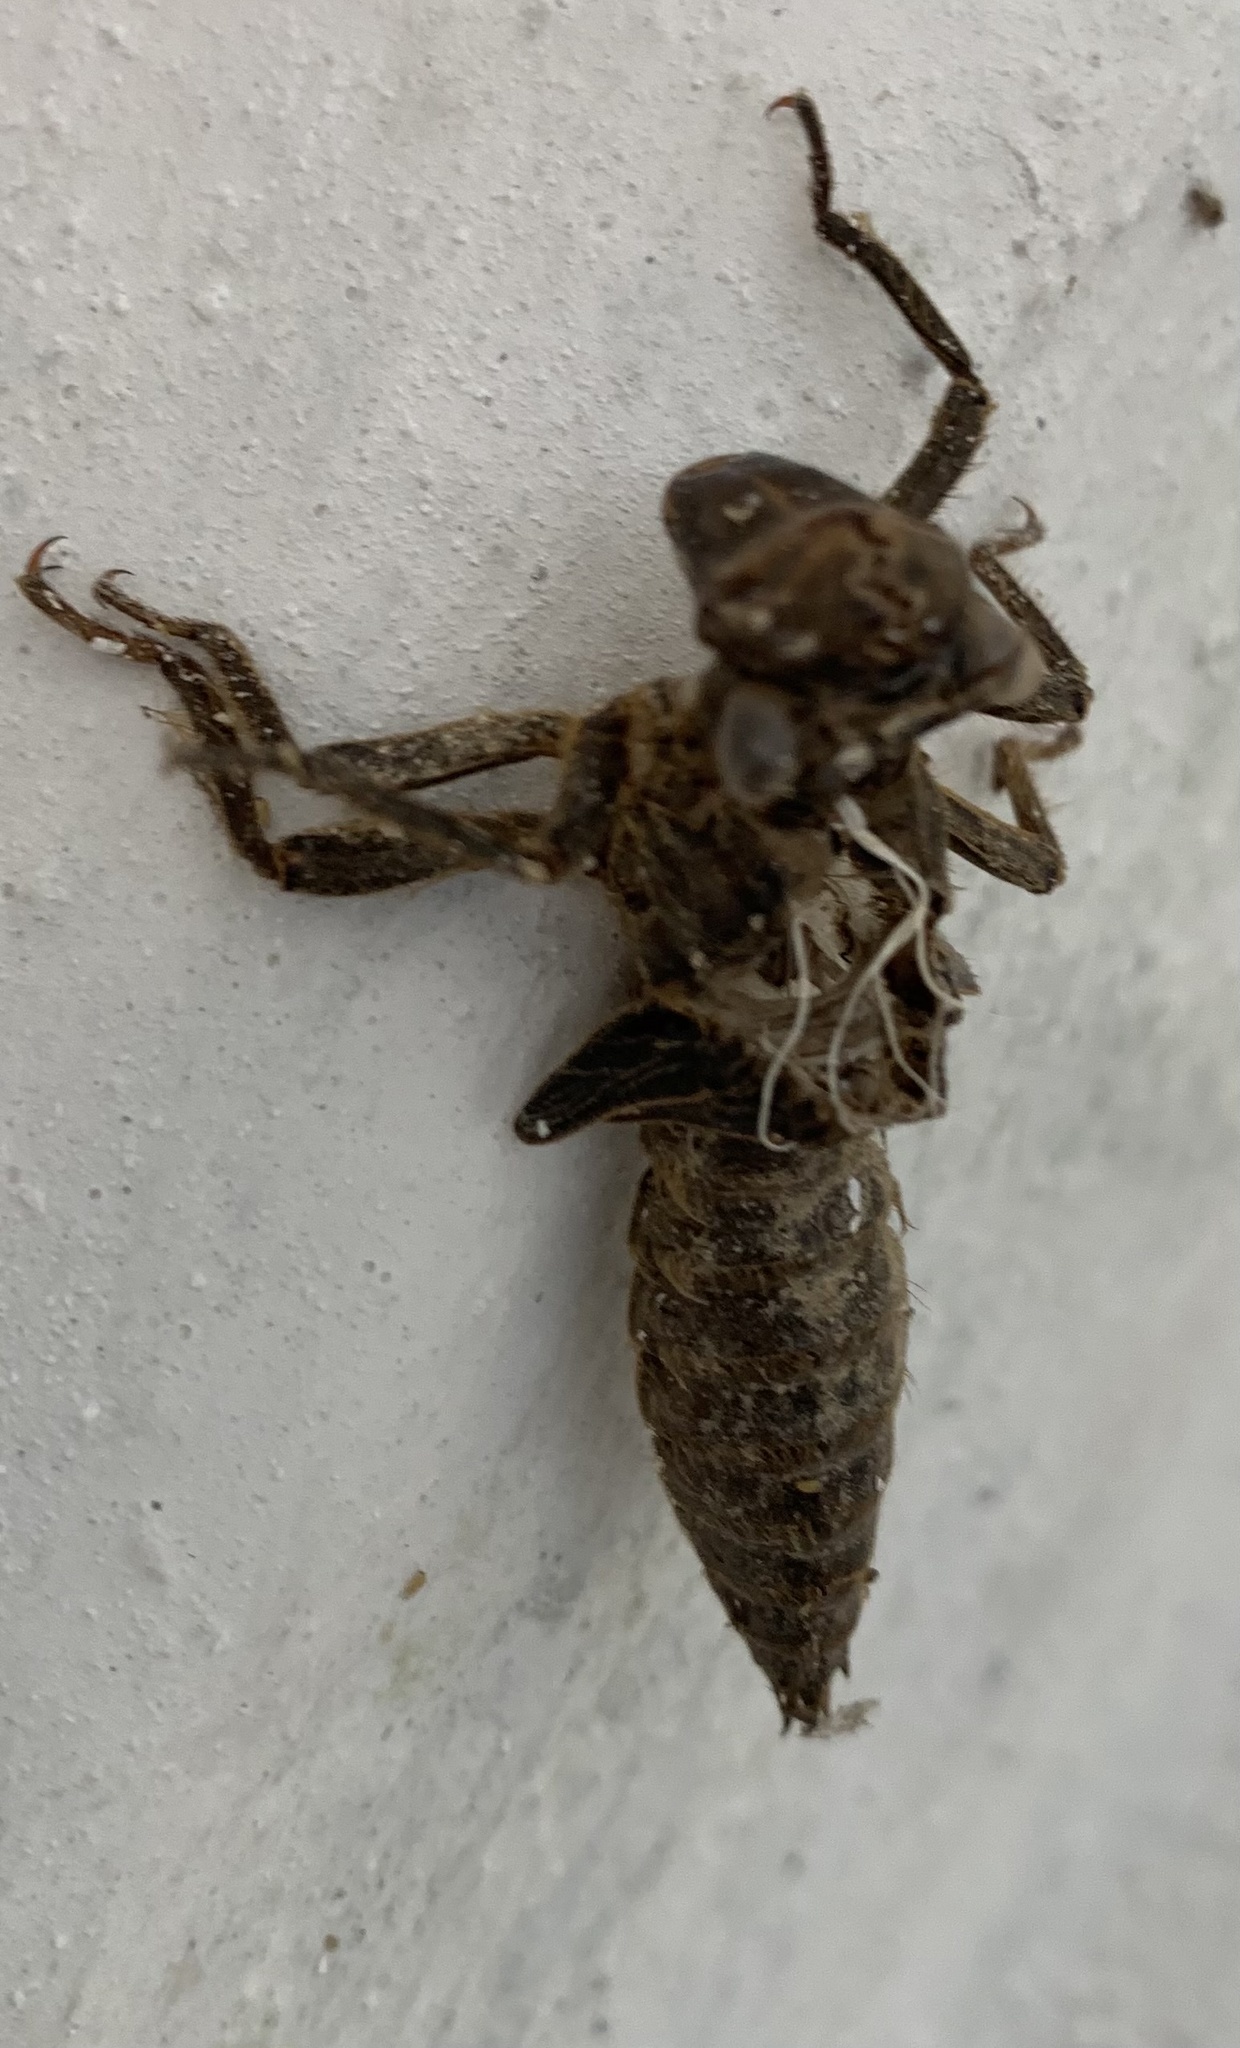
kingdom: Animalia
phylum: Arthropoda
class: Insecta
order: Odonata
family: Cordulegastridae
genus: Cordulegaster
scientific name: Cordulegaster
